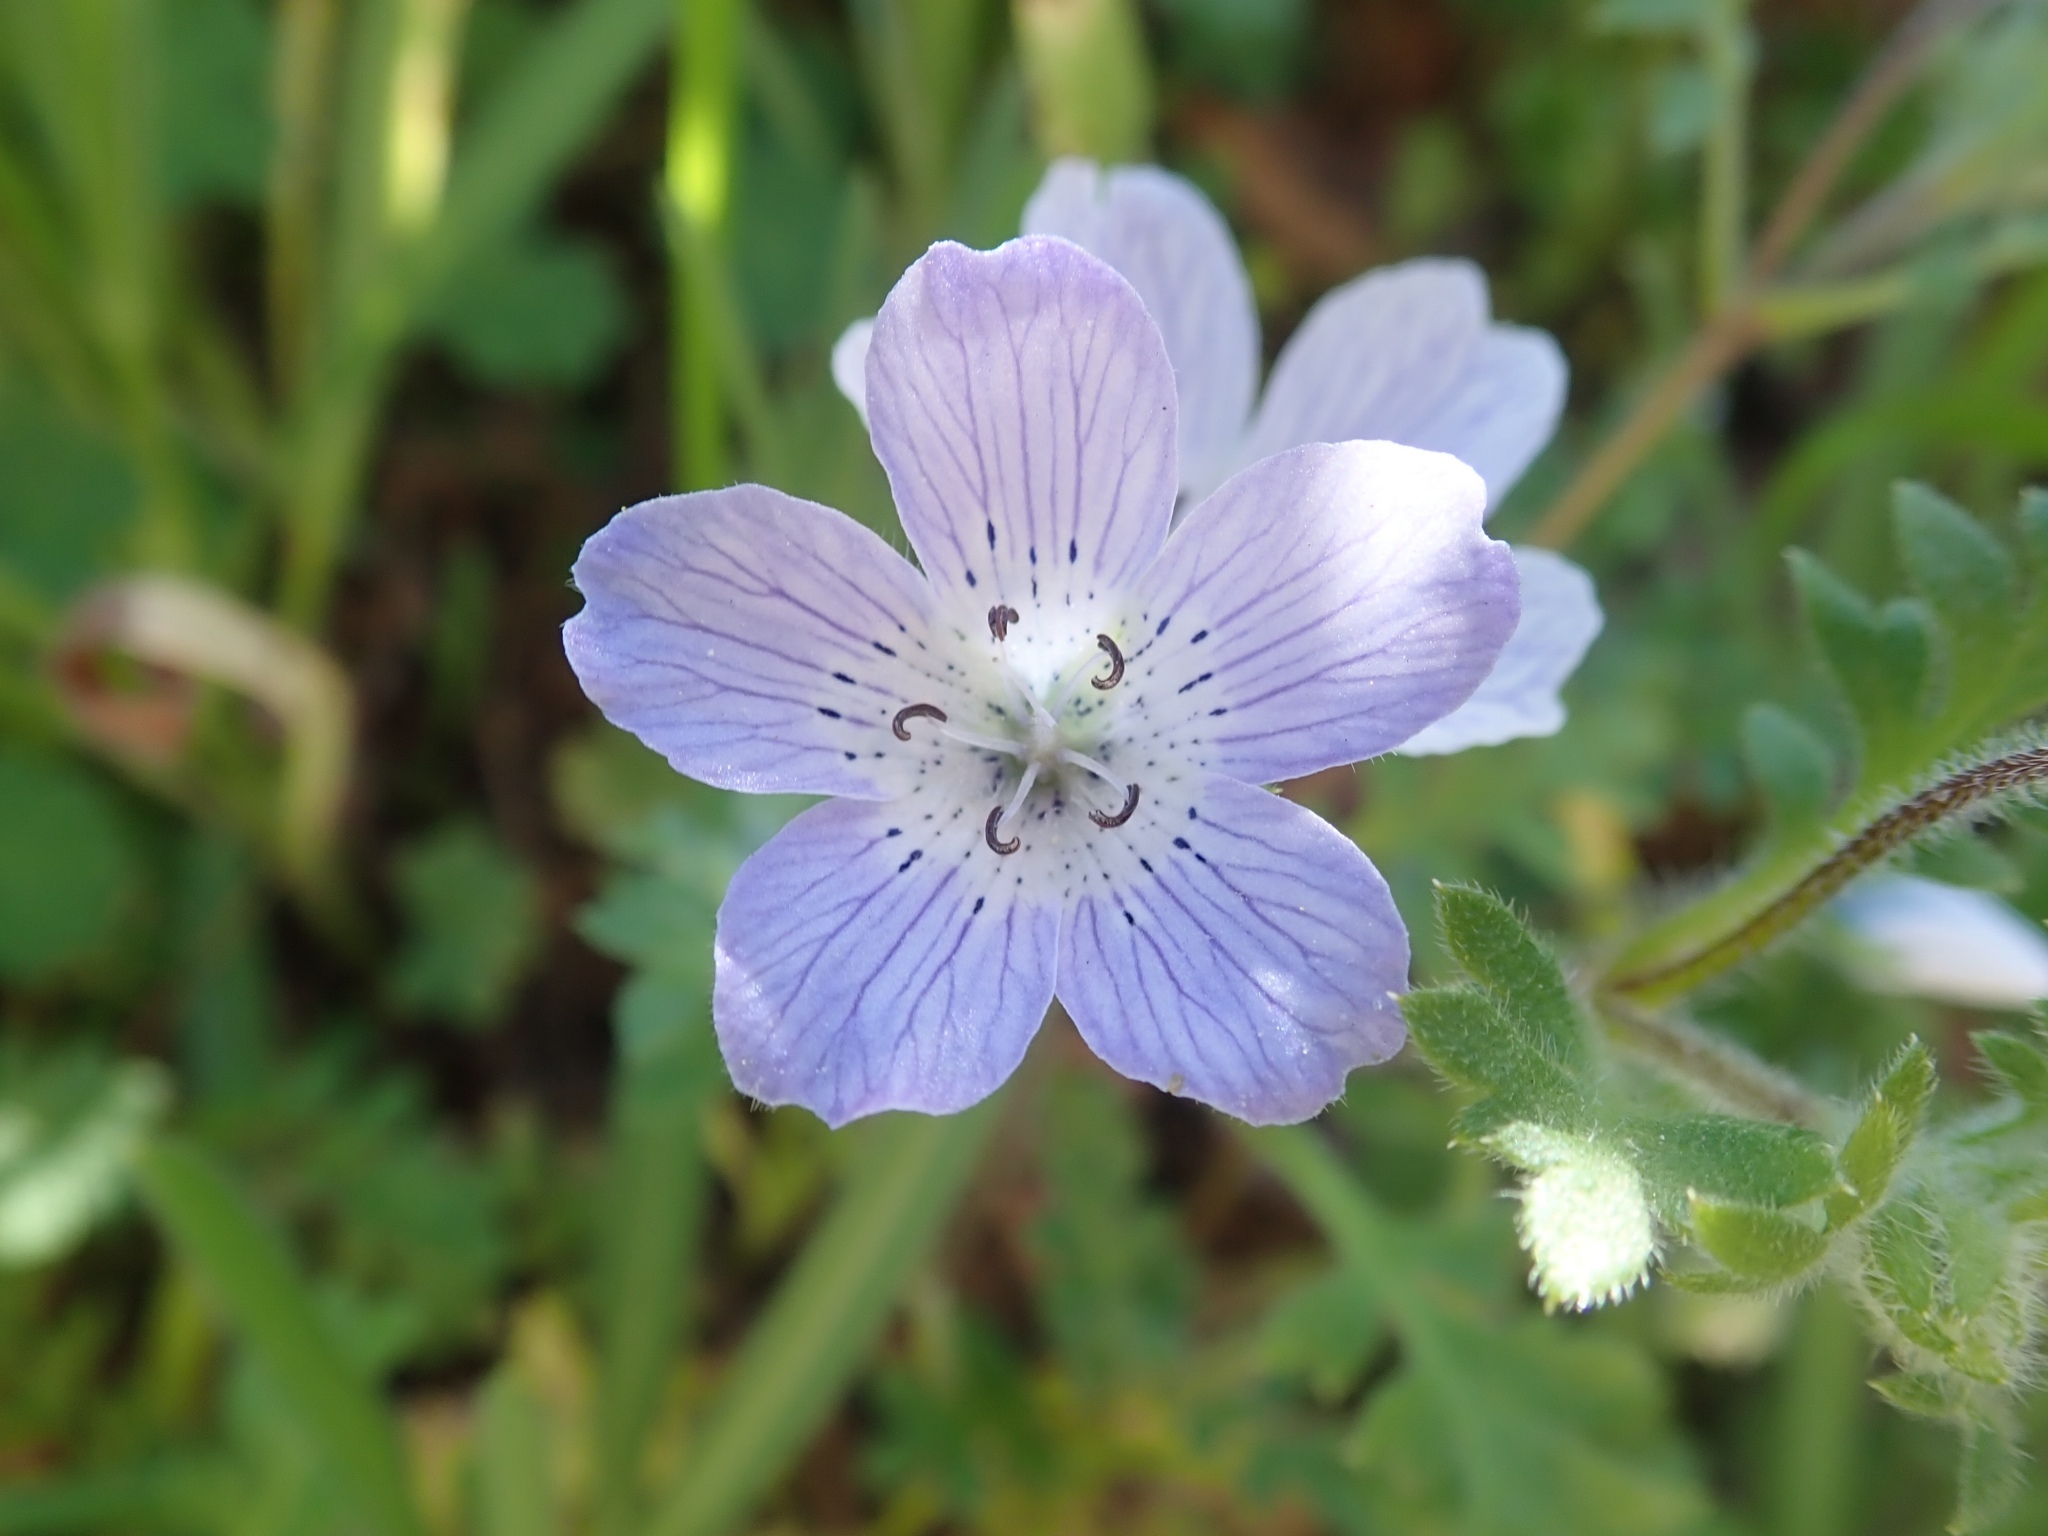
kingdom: Plantae
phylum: Tracheophyta
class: Magnoliopsida
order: Boraginales
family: Hydrophyllaceae
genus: Nemophila
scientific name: Nemophila menziesii
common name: Baby's-blue-eyes
